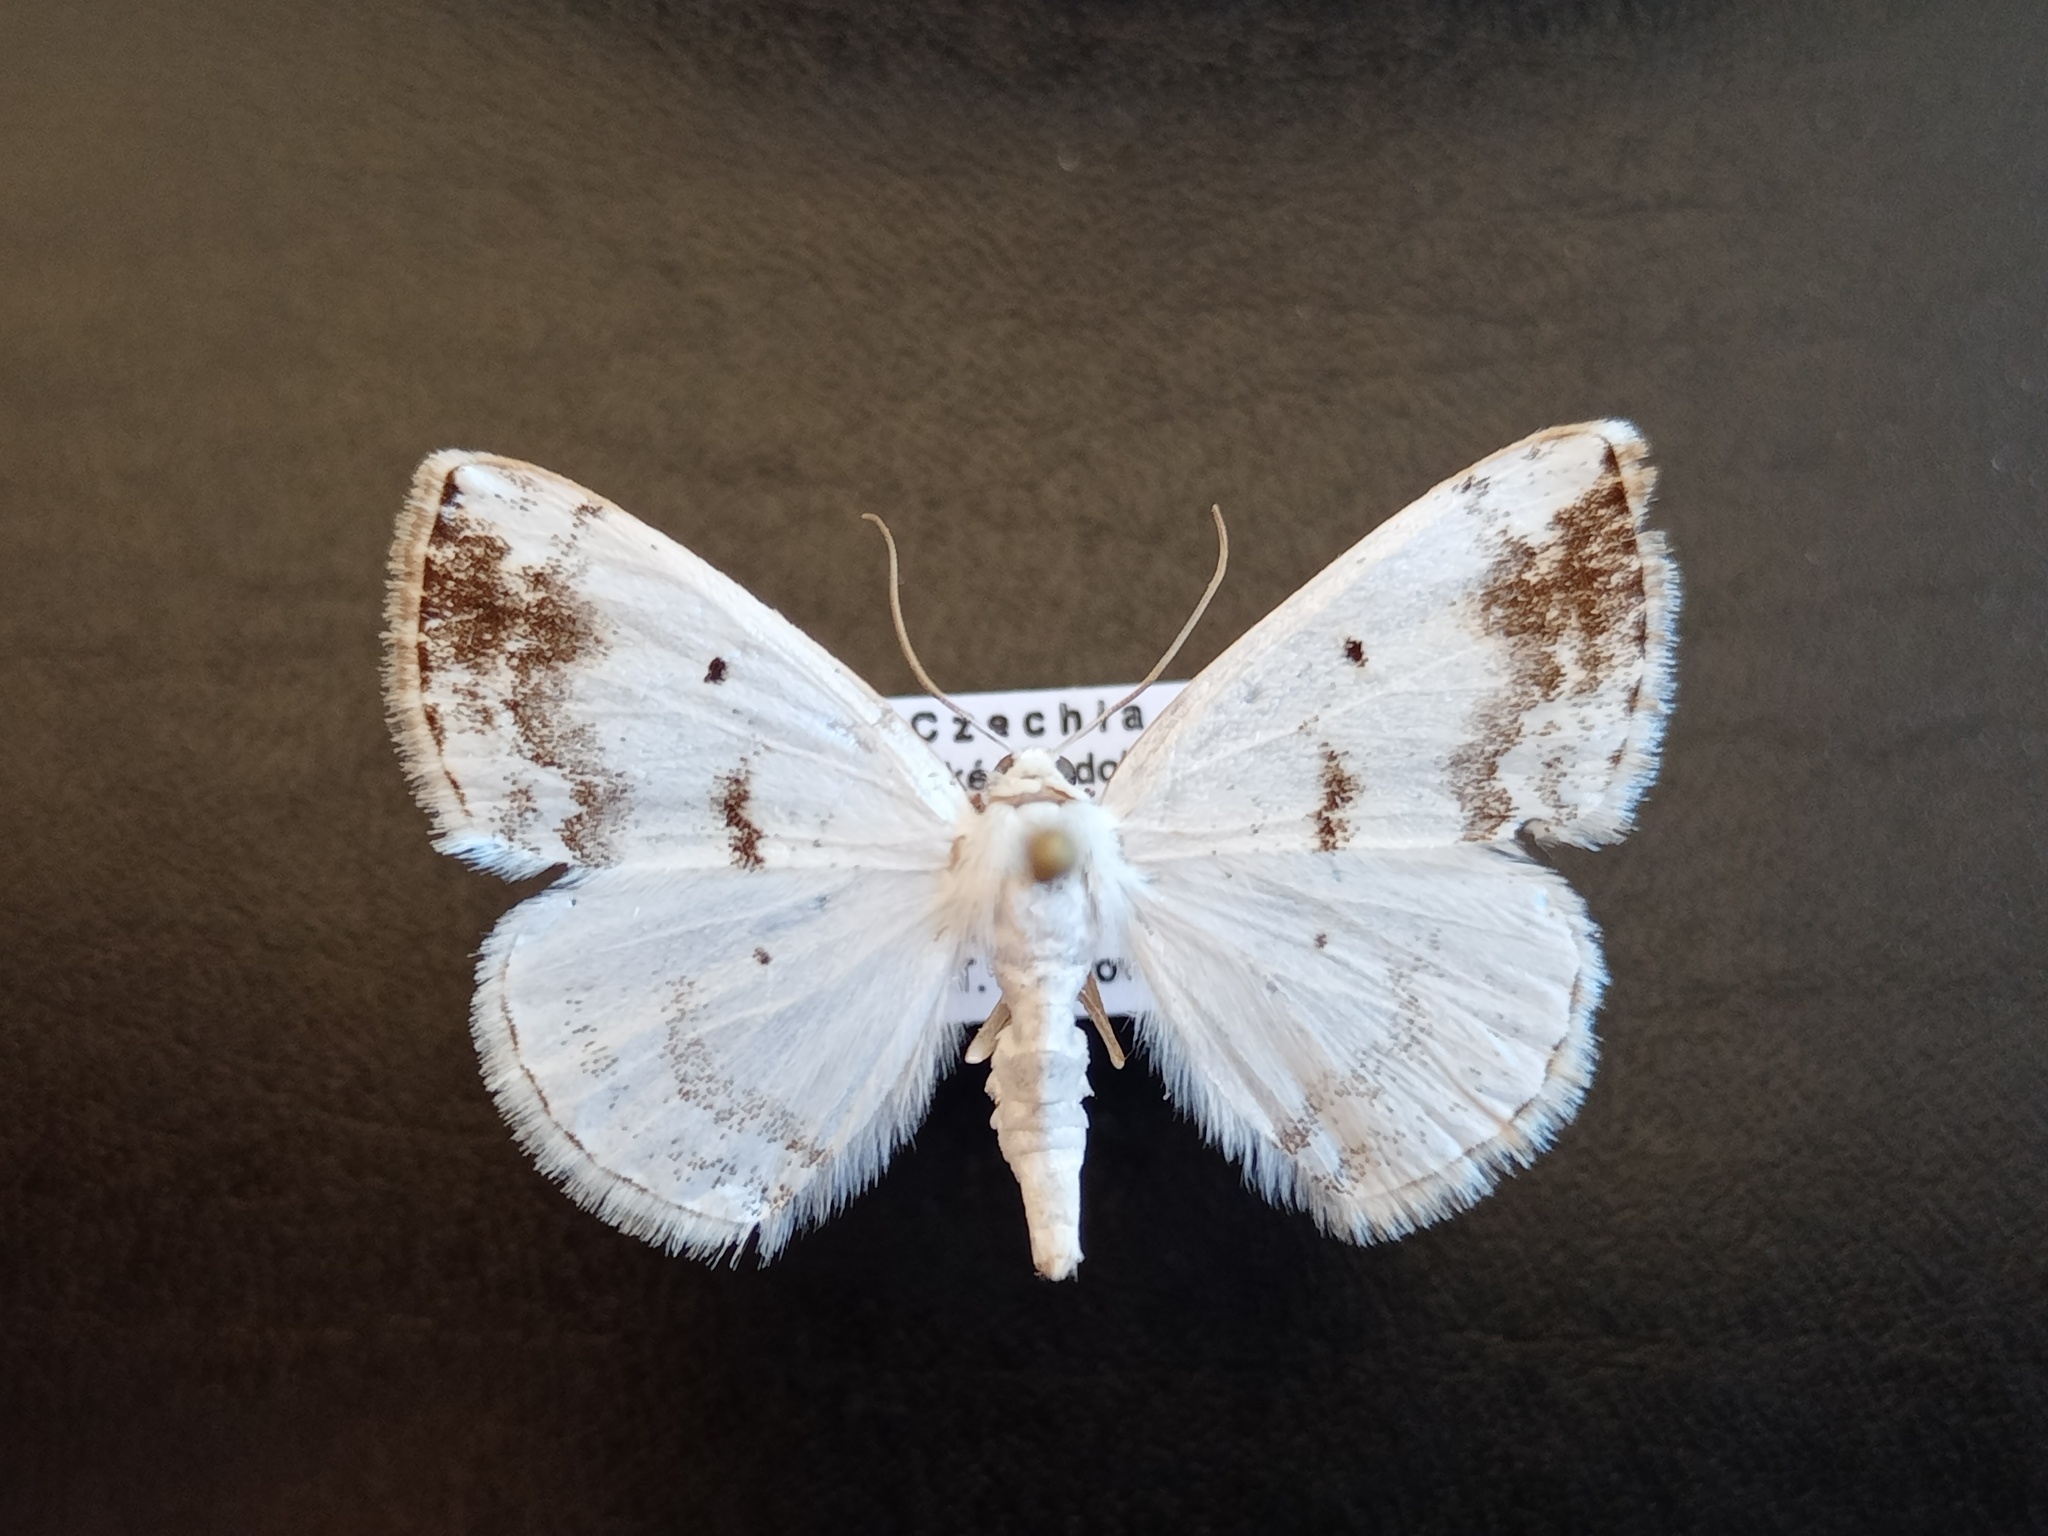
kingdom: Animalia
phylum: Arthropoda
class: Insecta
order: Lepidoptera
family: Geometridae
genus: Lomographa
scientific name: Lomographa temerata
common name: Clouded silver
